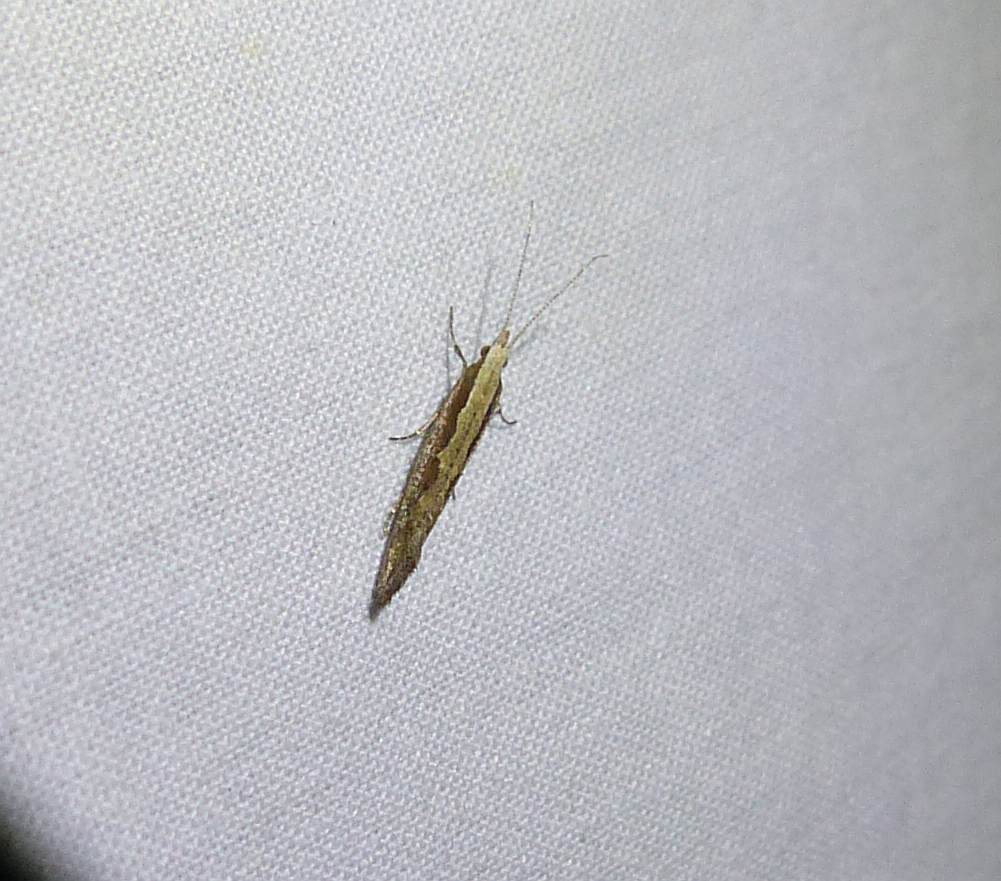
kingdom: Animalia
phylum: Arthropoda
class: Insecta
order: Lepidoptera
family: Plutellidae
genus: Plutella
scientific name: Plutella xylostella
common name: Diamond-back moth
